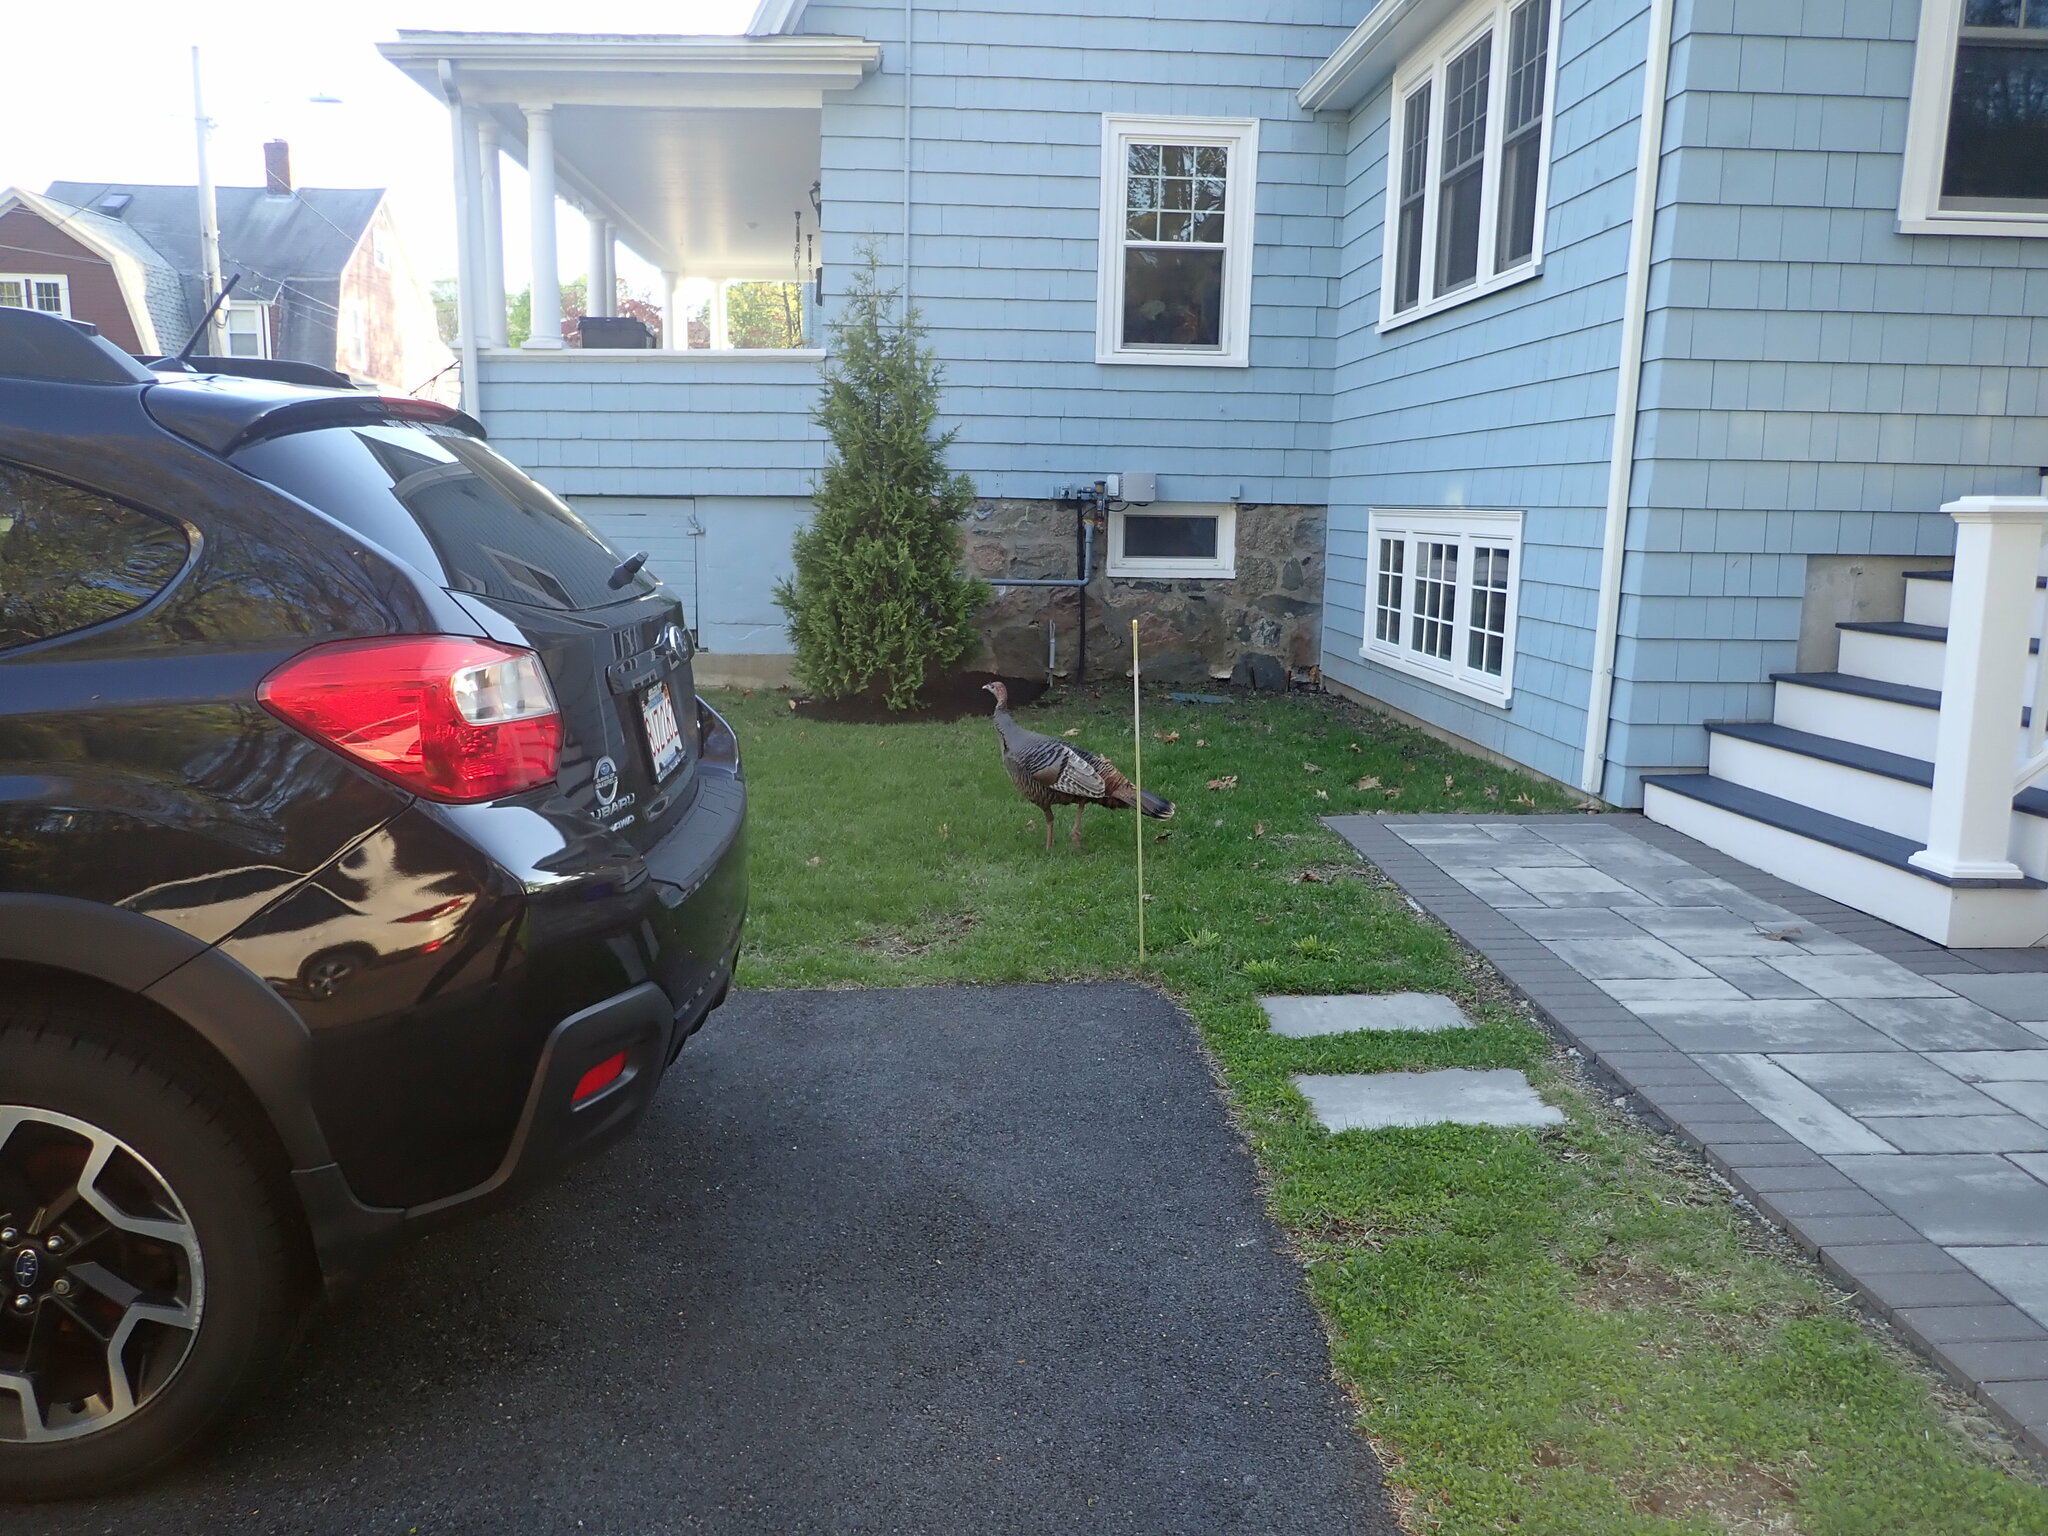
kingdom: Animalia
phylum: Chordata
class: Aves
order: Galliformes
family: Phasianidae
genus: Meleagris
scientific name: Meleagris gallopavo
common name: Wild turkey
